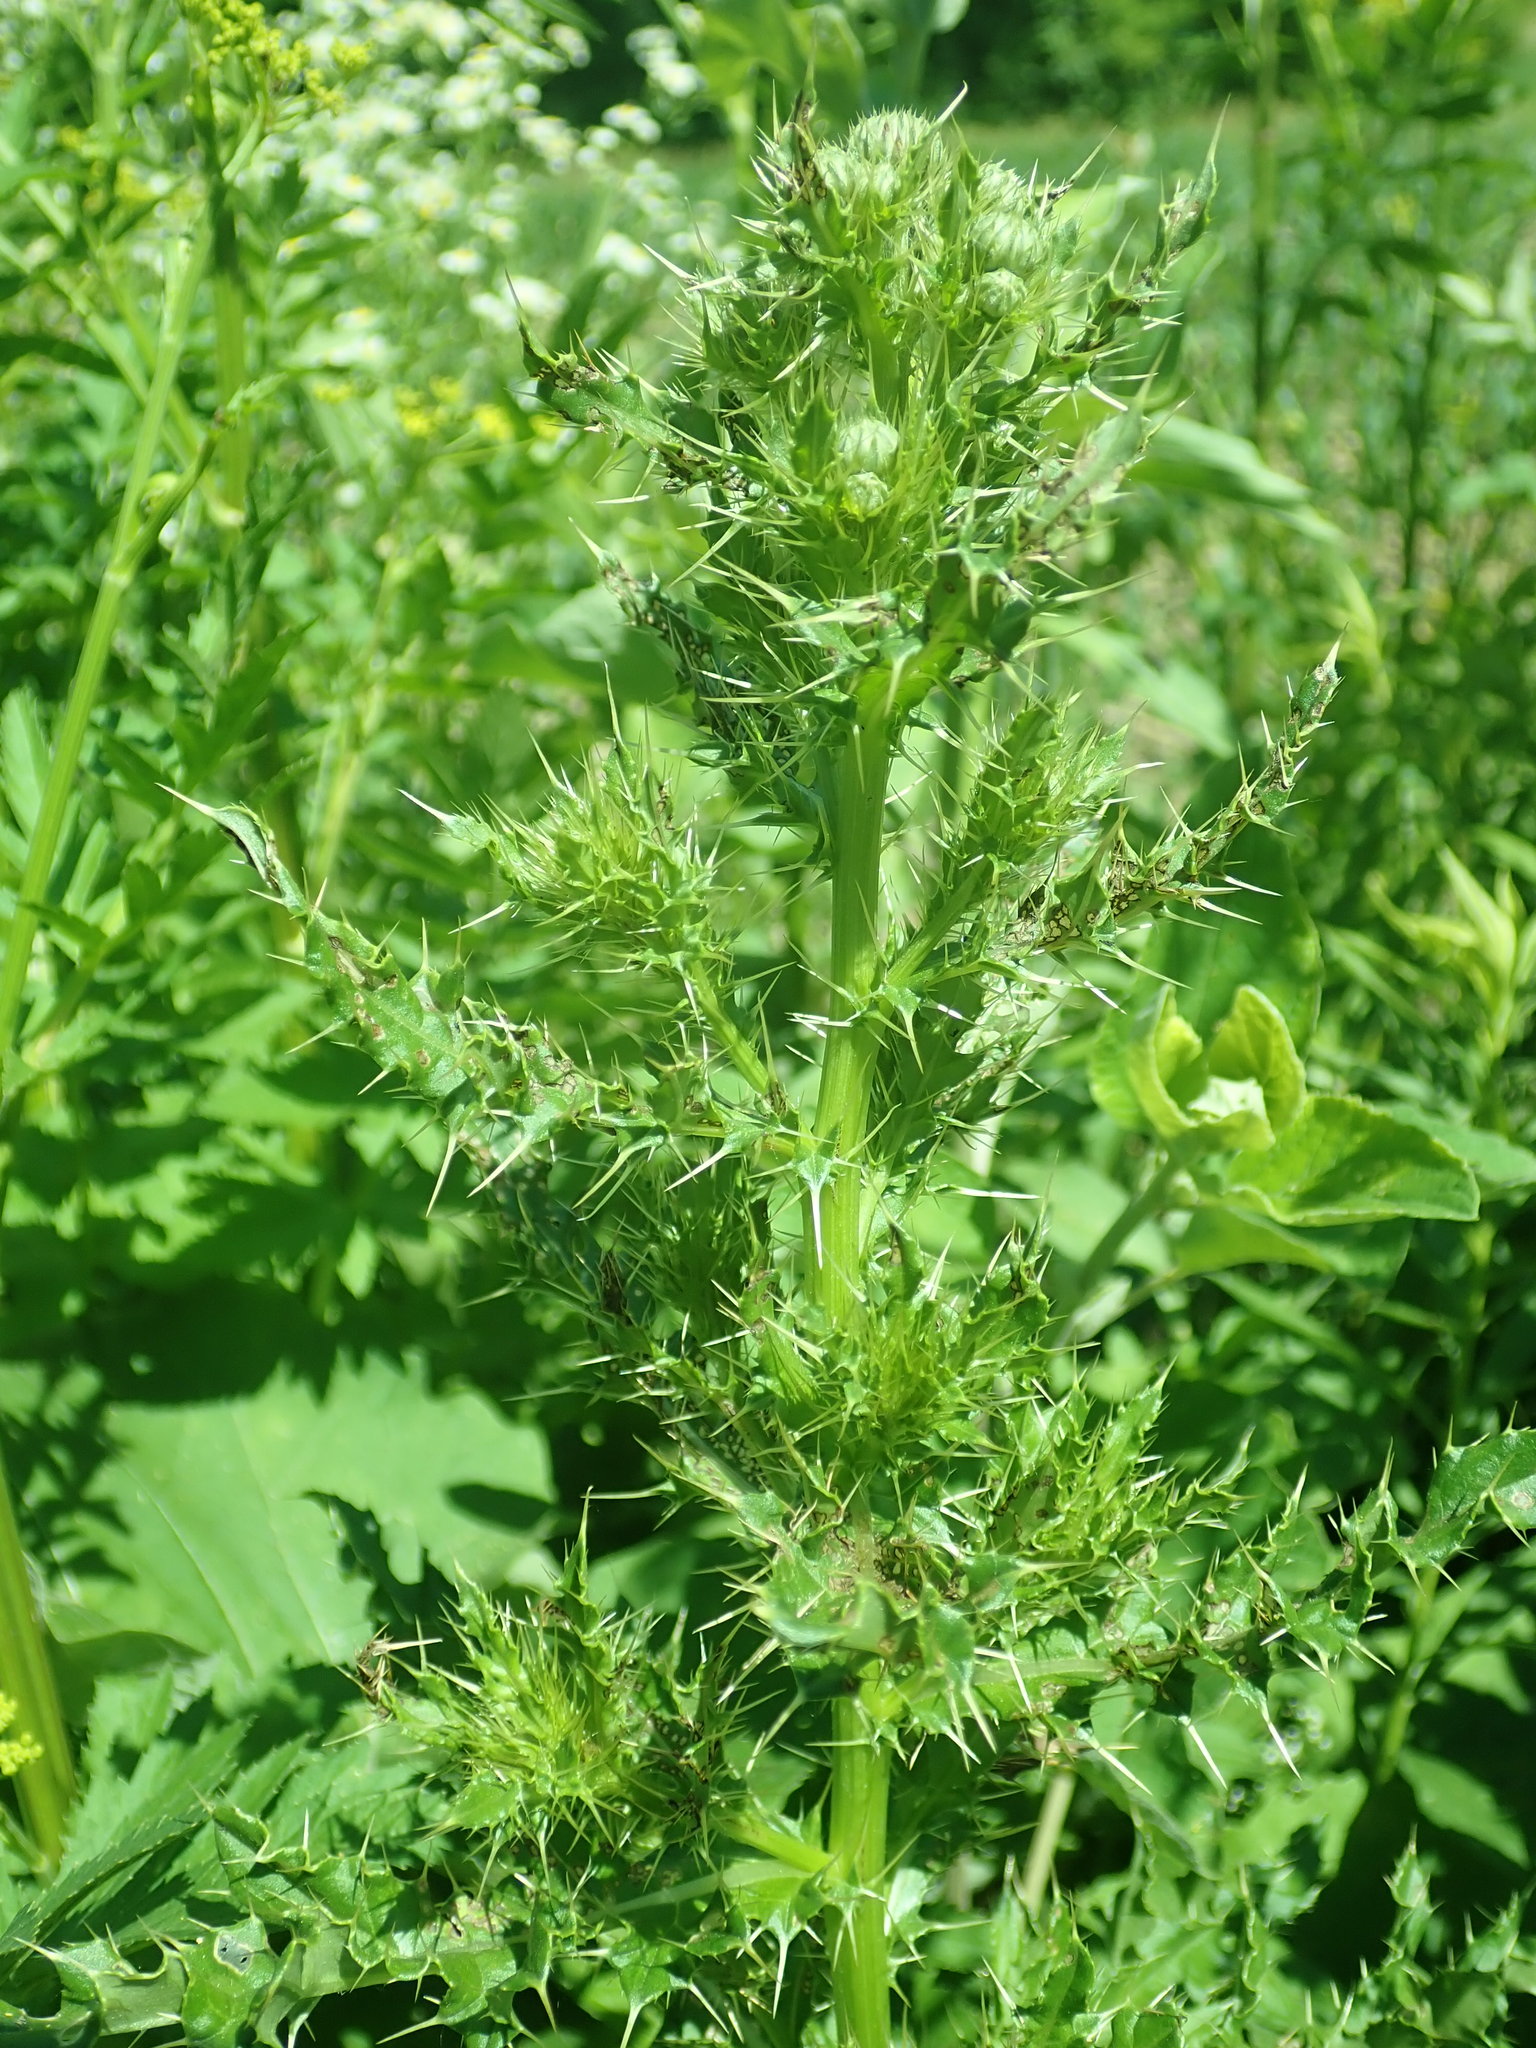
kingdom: Plantae
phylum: Tracheophyta
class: Magnoliopsida
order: Asterales
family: Asteraceae
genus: Cirsium
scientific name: Cirsium arvense
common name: Creeping thistle
